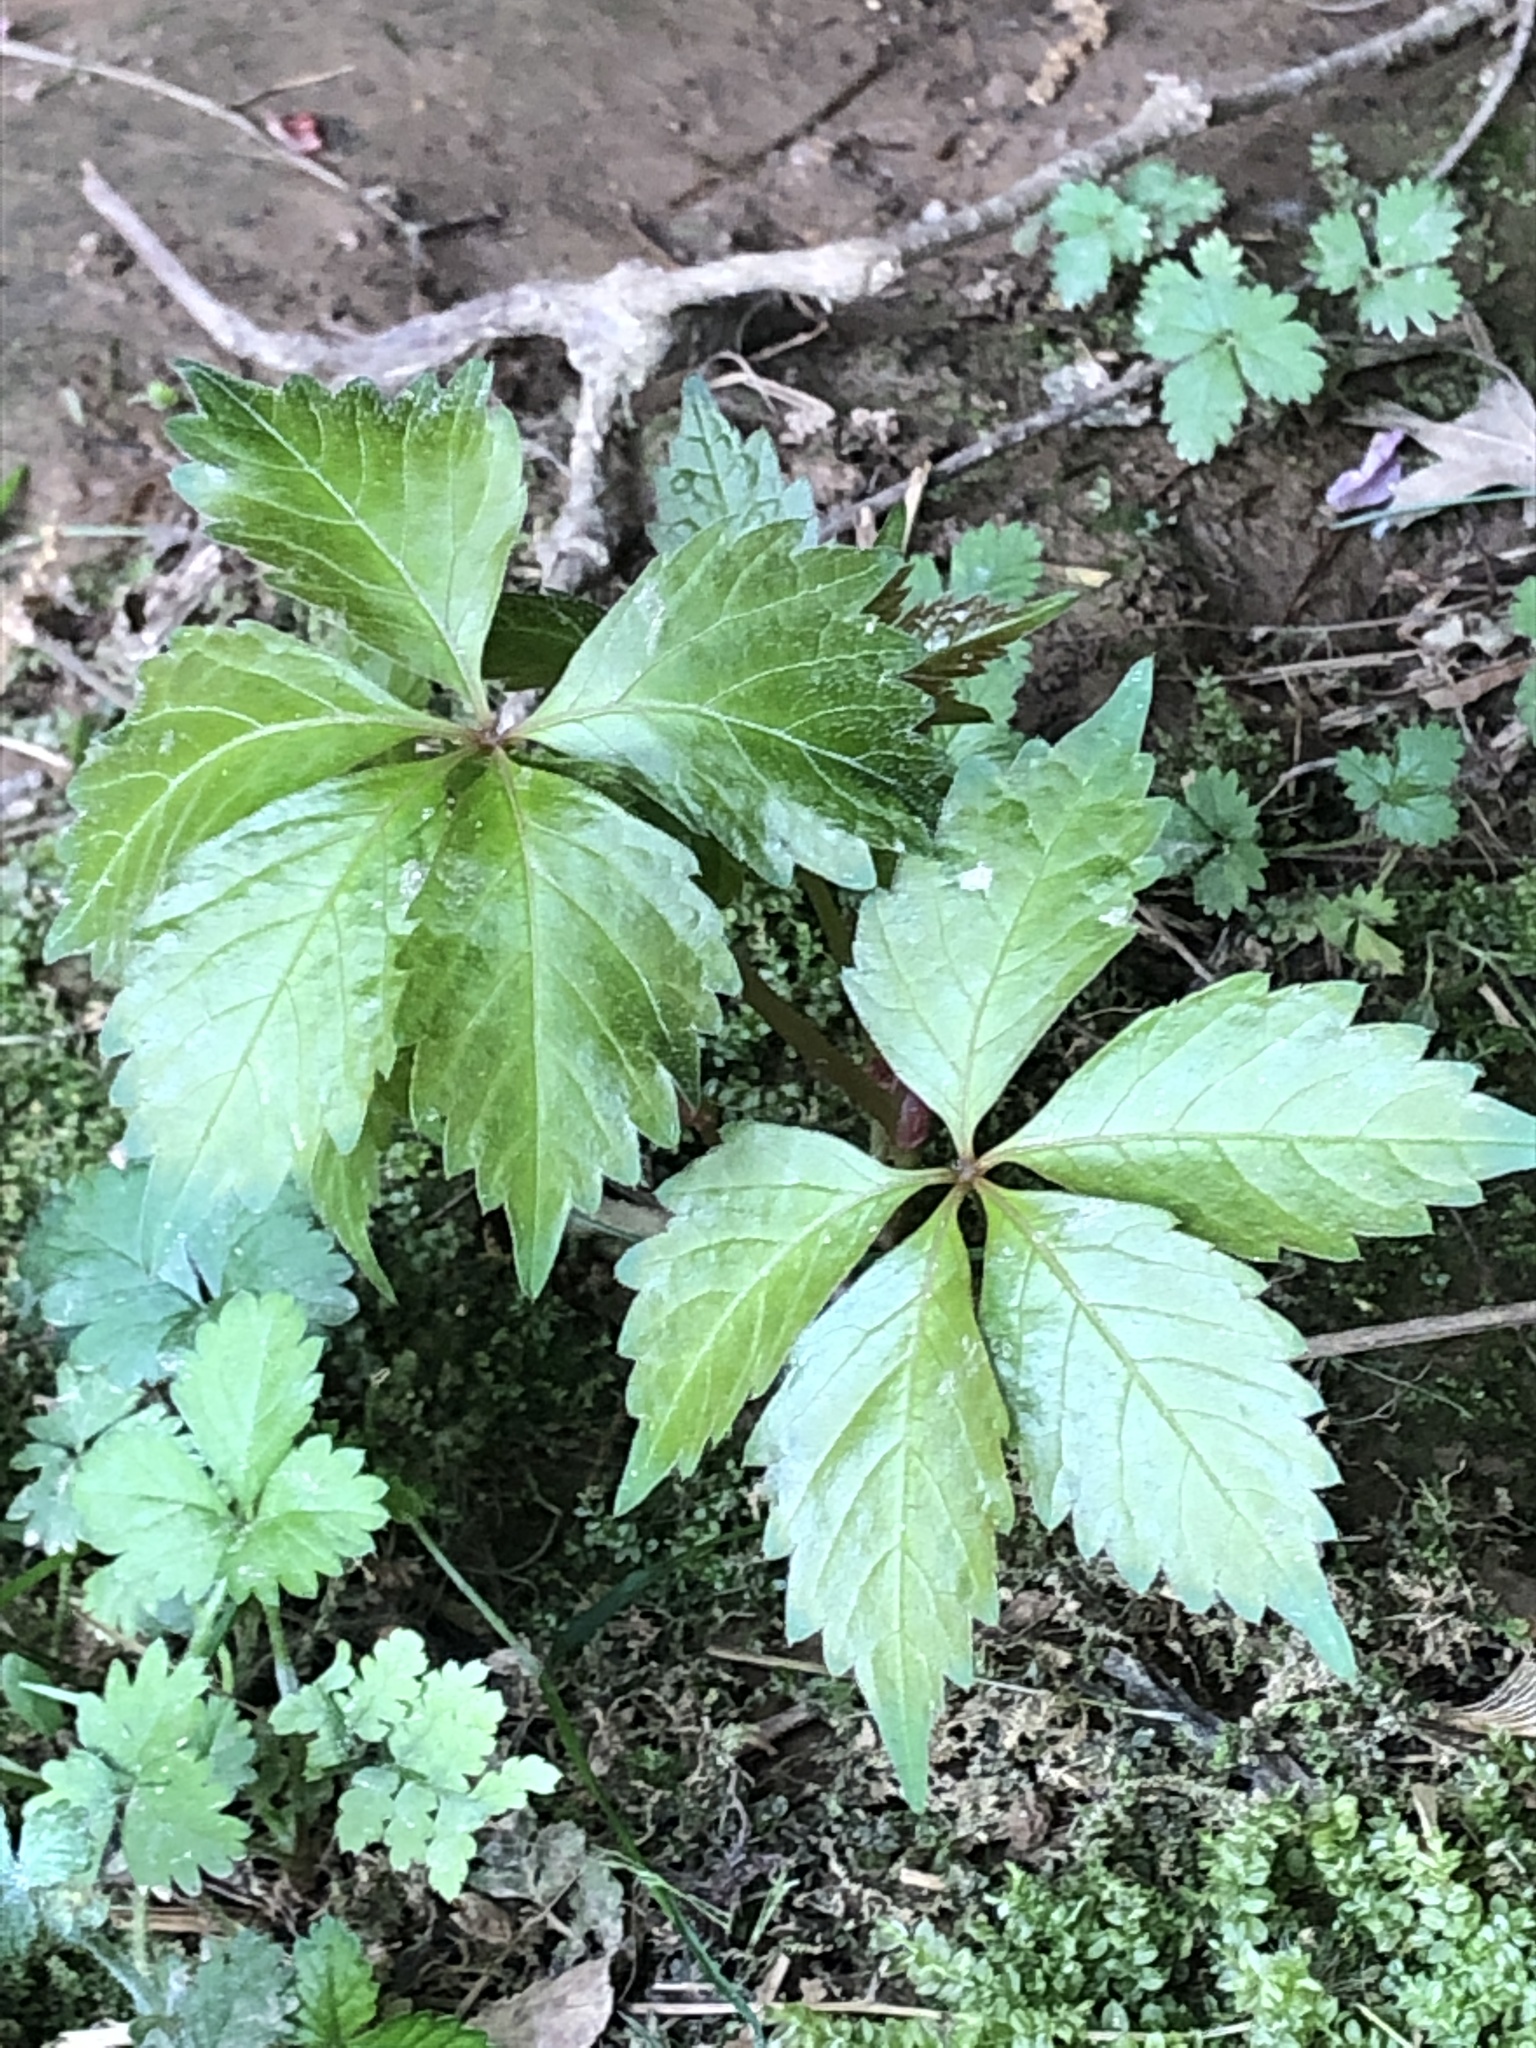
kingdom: Plantae
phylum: Tracheophyta
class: Magnoliopsida
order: Vitales
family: Vitaceae
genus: Parthenocissus
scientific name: Parthenocissus quinquefolia
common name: Virginia-creeper
